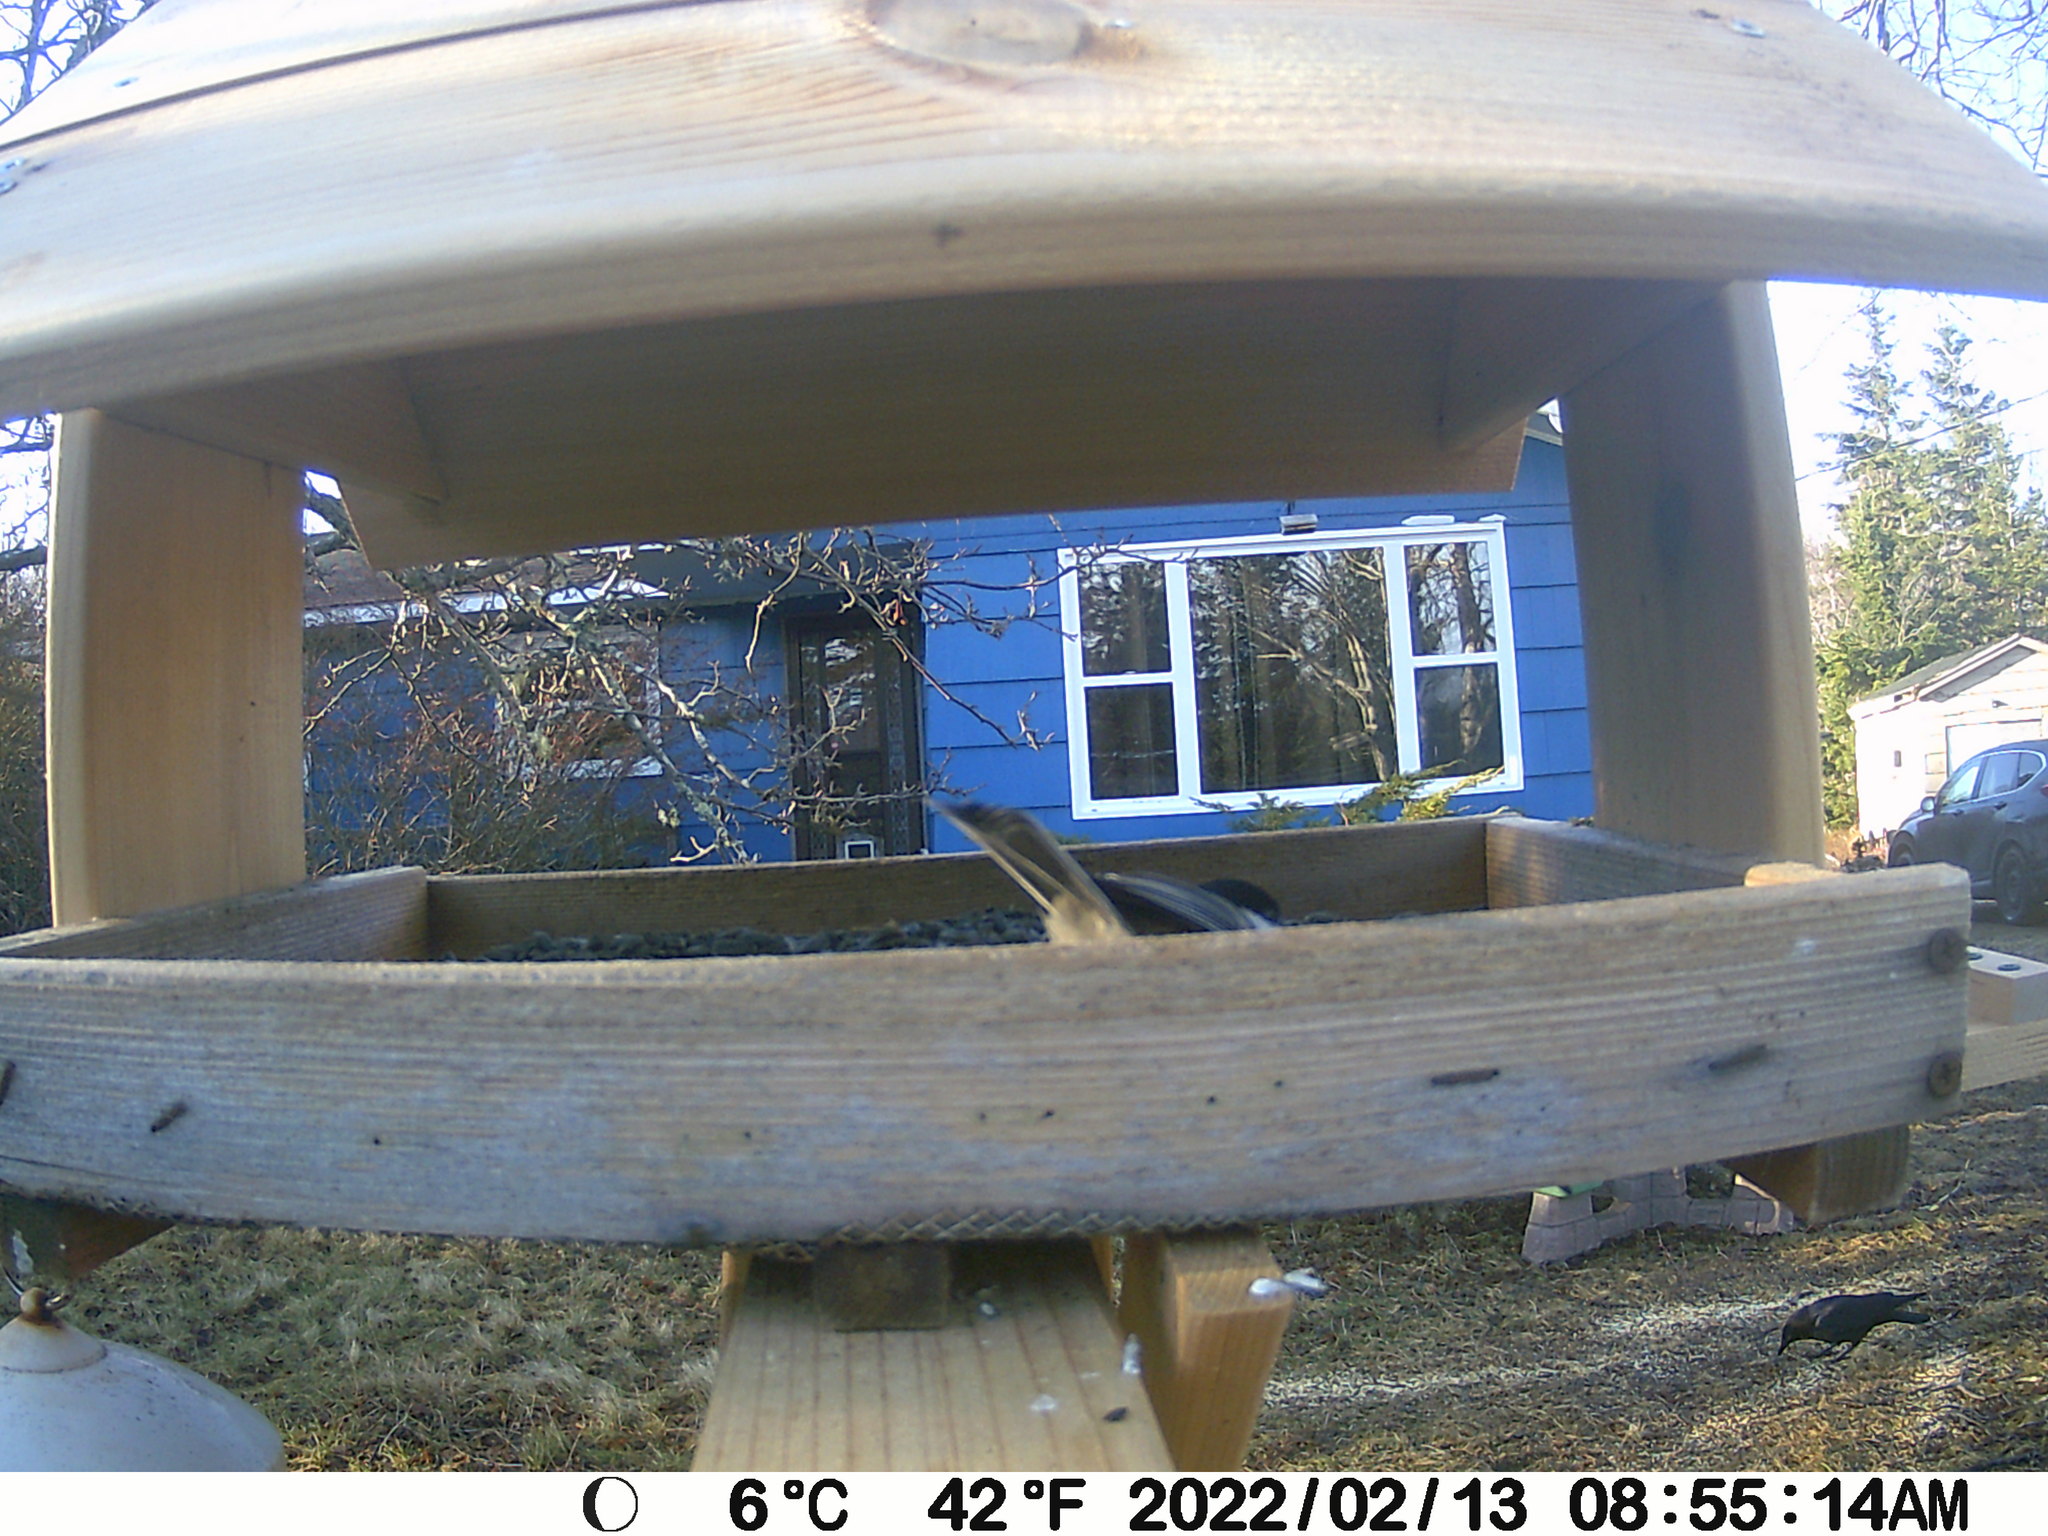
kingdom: Animalia
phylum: Chordata
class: Aves
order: Passeriformes
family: Corvidae
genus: Corvus
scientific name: Corvus brachyrhynchos
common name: American crow
